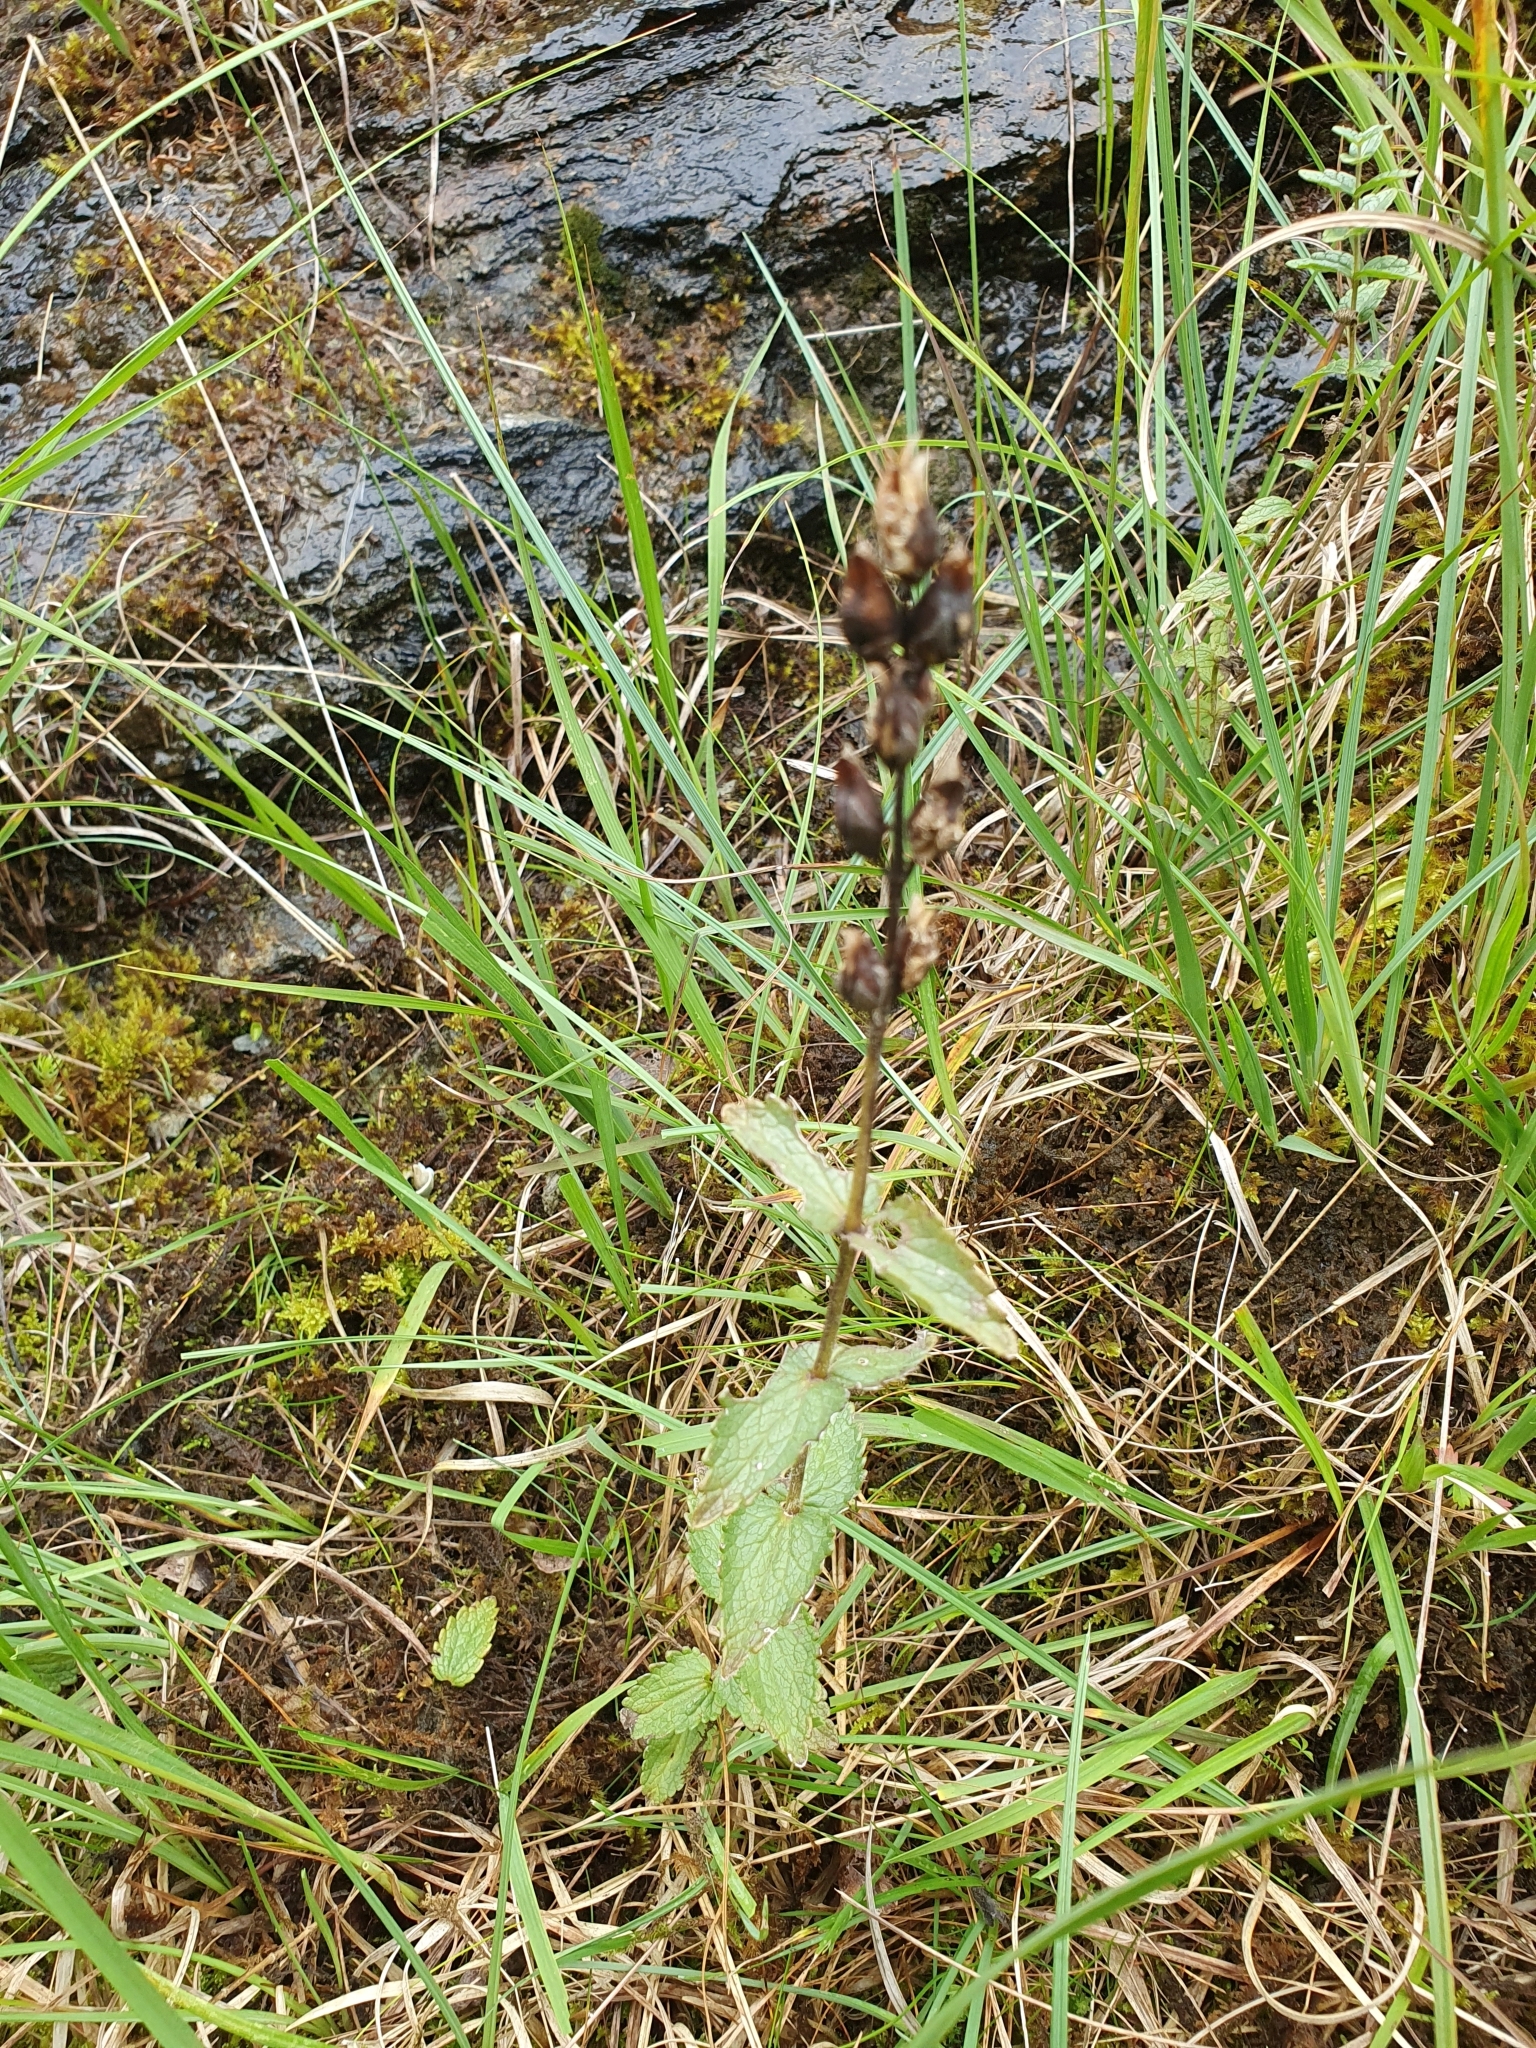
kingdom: Plantae
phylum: Tracheophyta
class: Magnoliopsida
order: Lamiales
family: Orobanchaceae
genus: Bartsia
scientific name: Bartsia alpina
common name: Alpine bartsia
